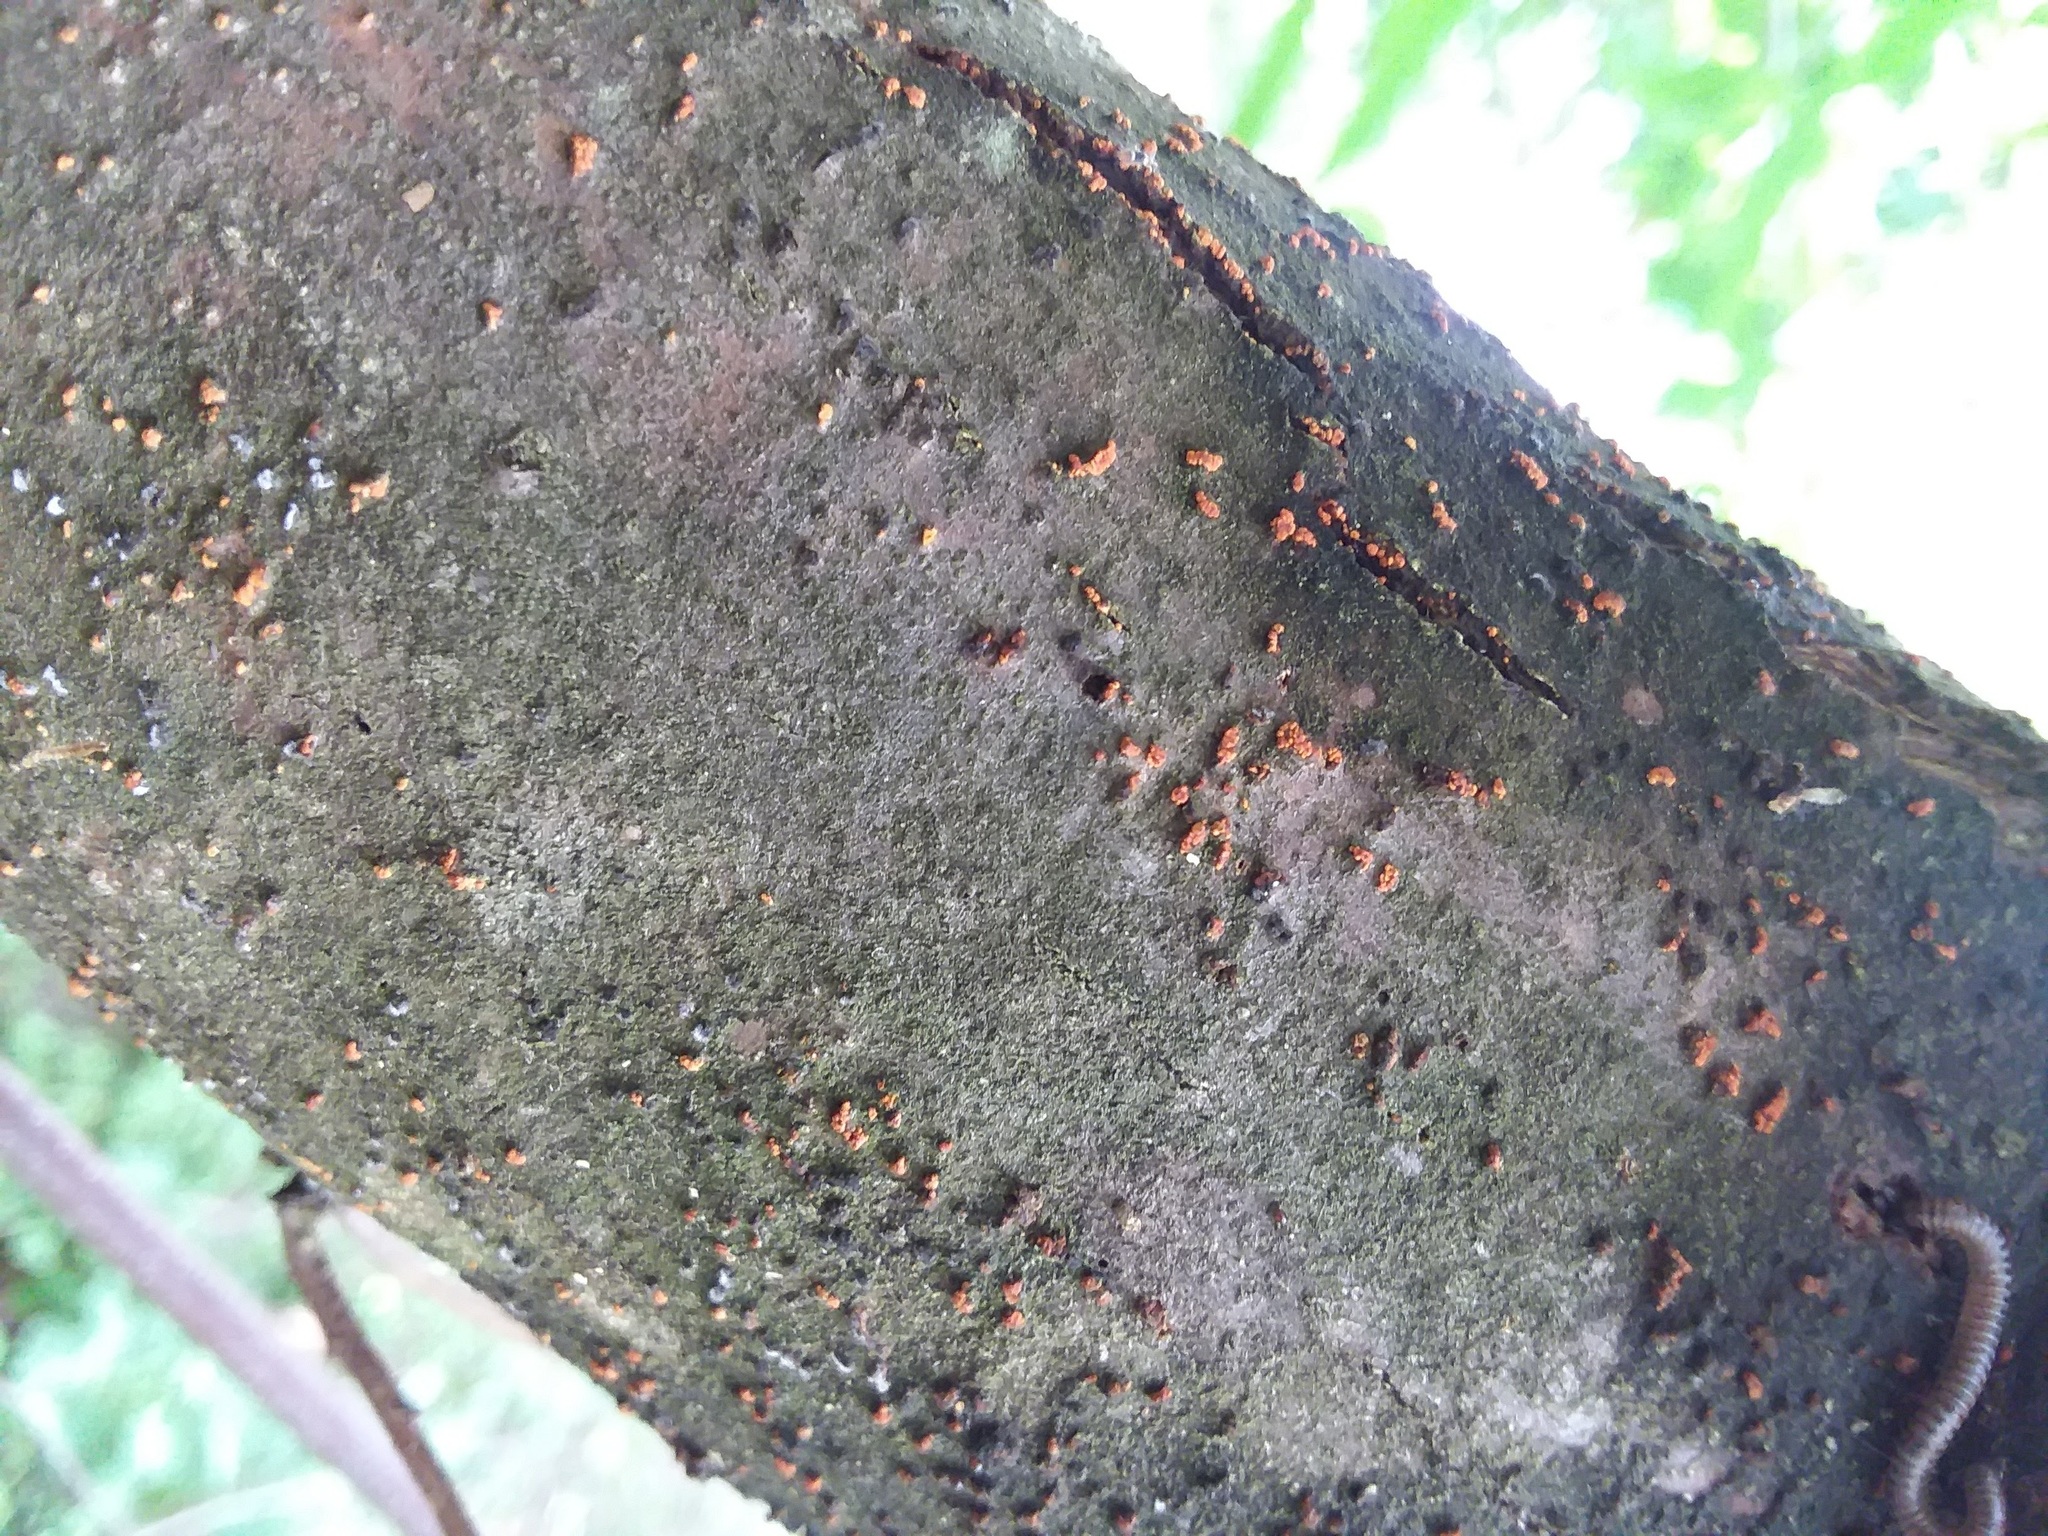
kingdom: Fungi
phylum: Ascomycota
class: Sordariomycetes
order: Diaporthales
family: Cryphonectriaceae
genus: Cryphonectria
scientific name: Cryphonectria parasitica
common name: Chestnut blight
